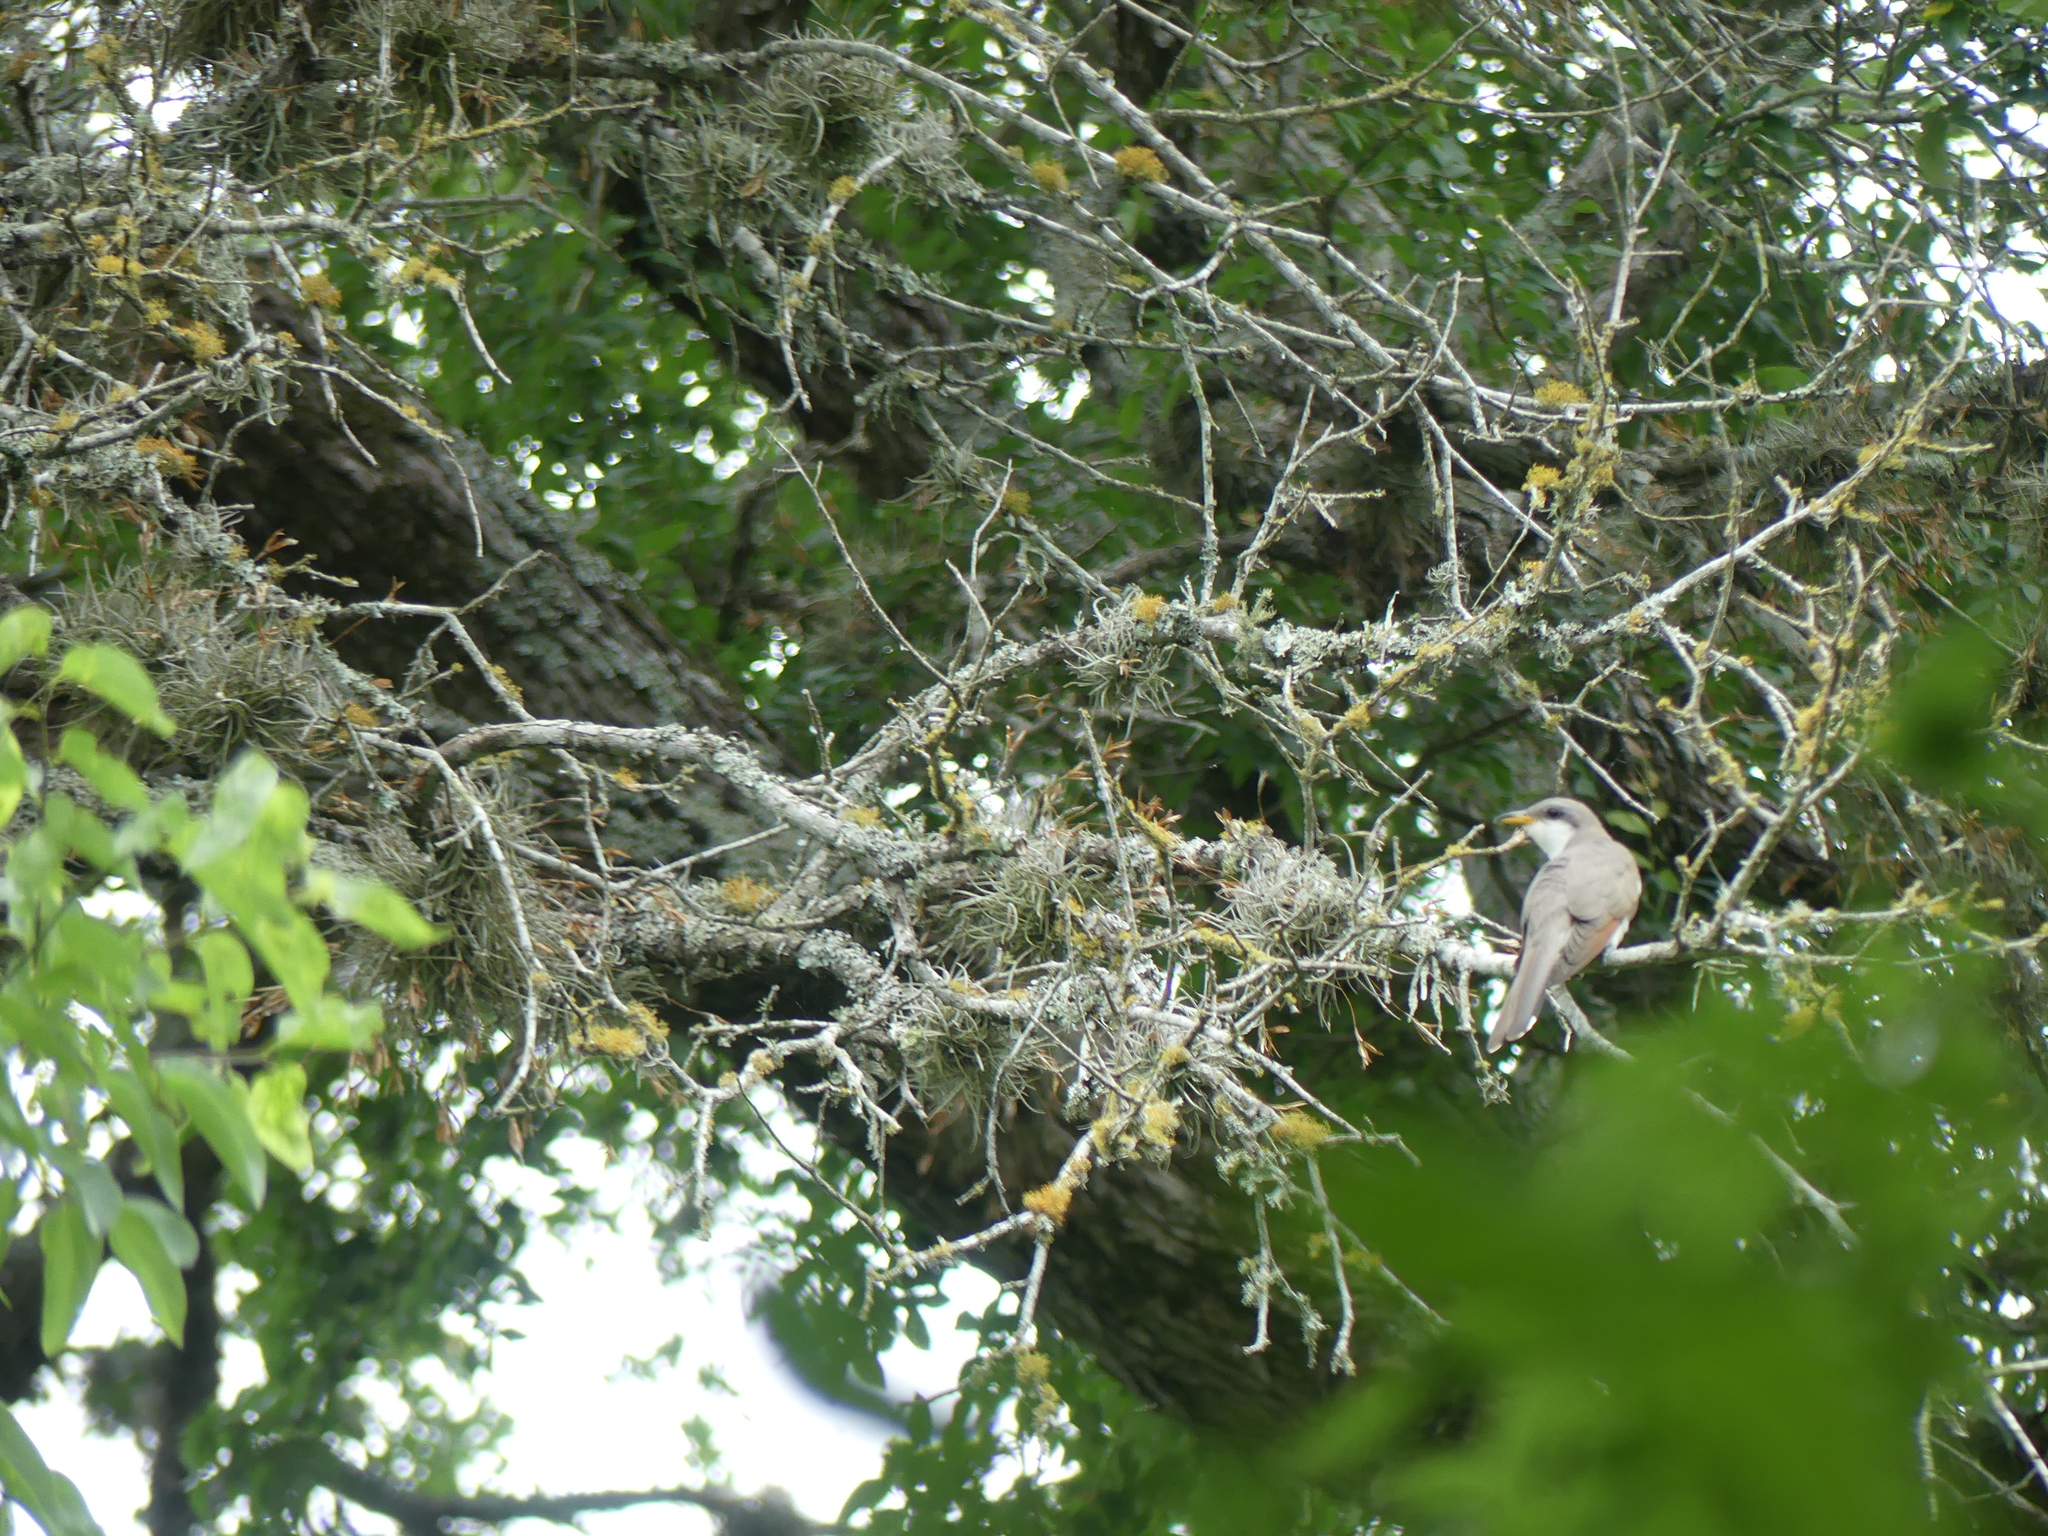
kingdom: Animalia
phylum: Chordata
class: Aves
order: Cuculiformes
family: Cuculidae
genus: Coccyzus
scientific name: Coccyzus americanus
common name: Yellow-billed cuckoo
